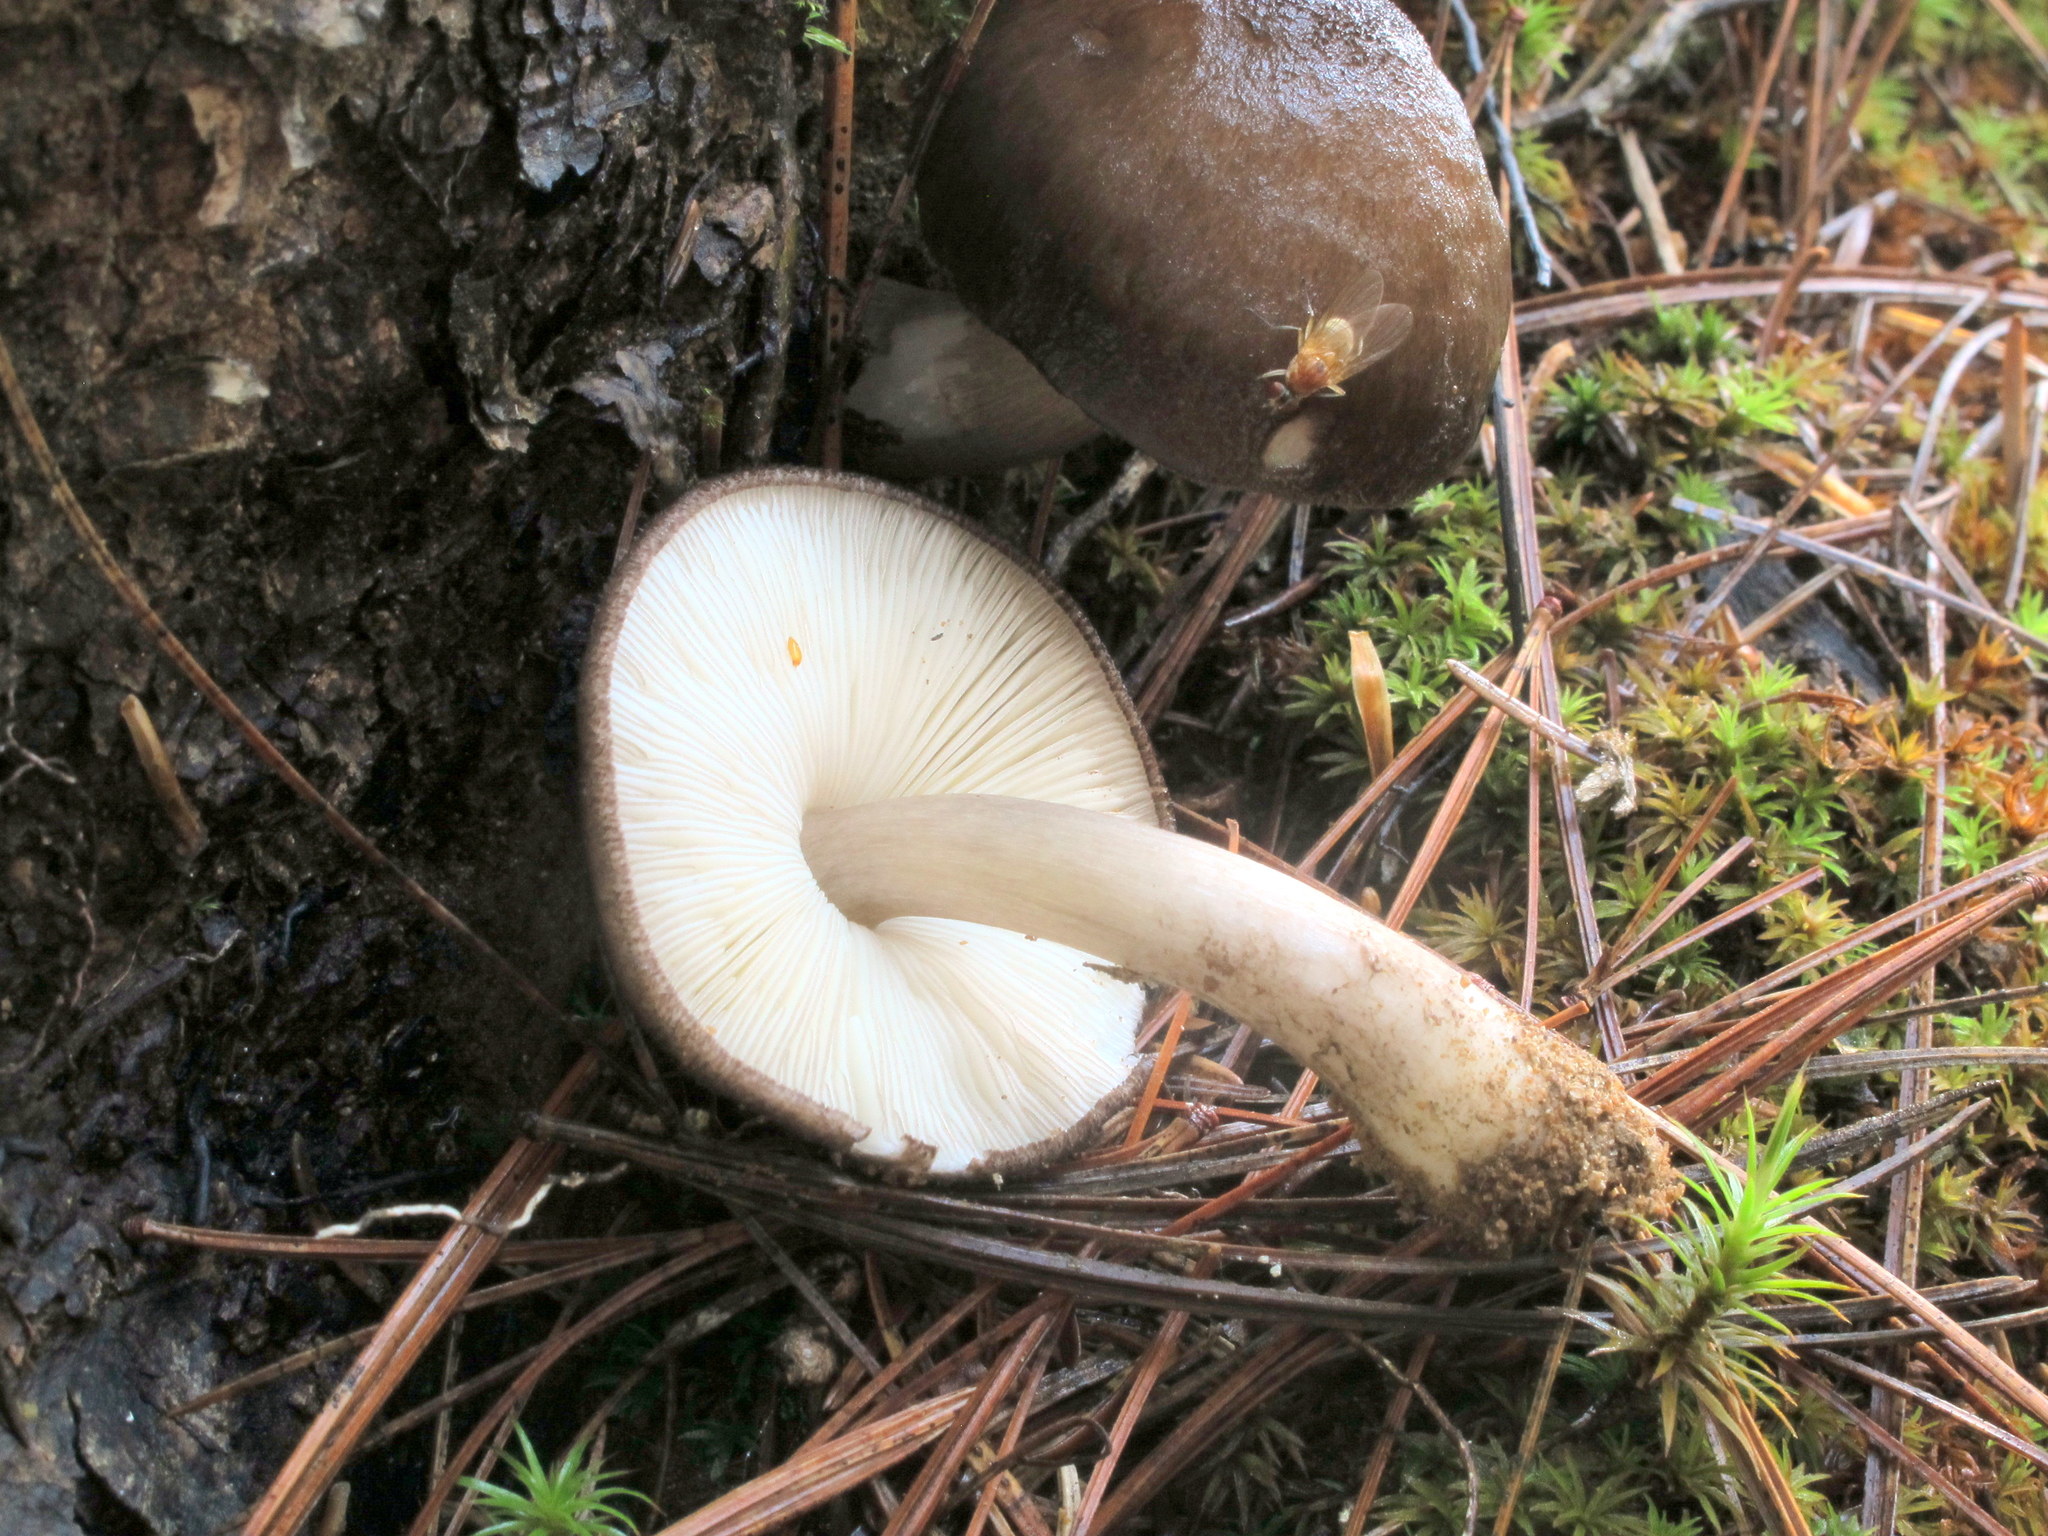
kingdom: Fungi
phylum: Basidiomycota
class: Agaricomycetes
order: Agaricales
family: Pluteaceae
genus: Pluteus
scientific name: Pluteus atromarginatus
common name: Blackedged shield
